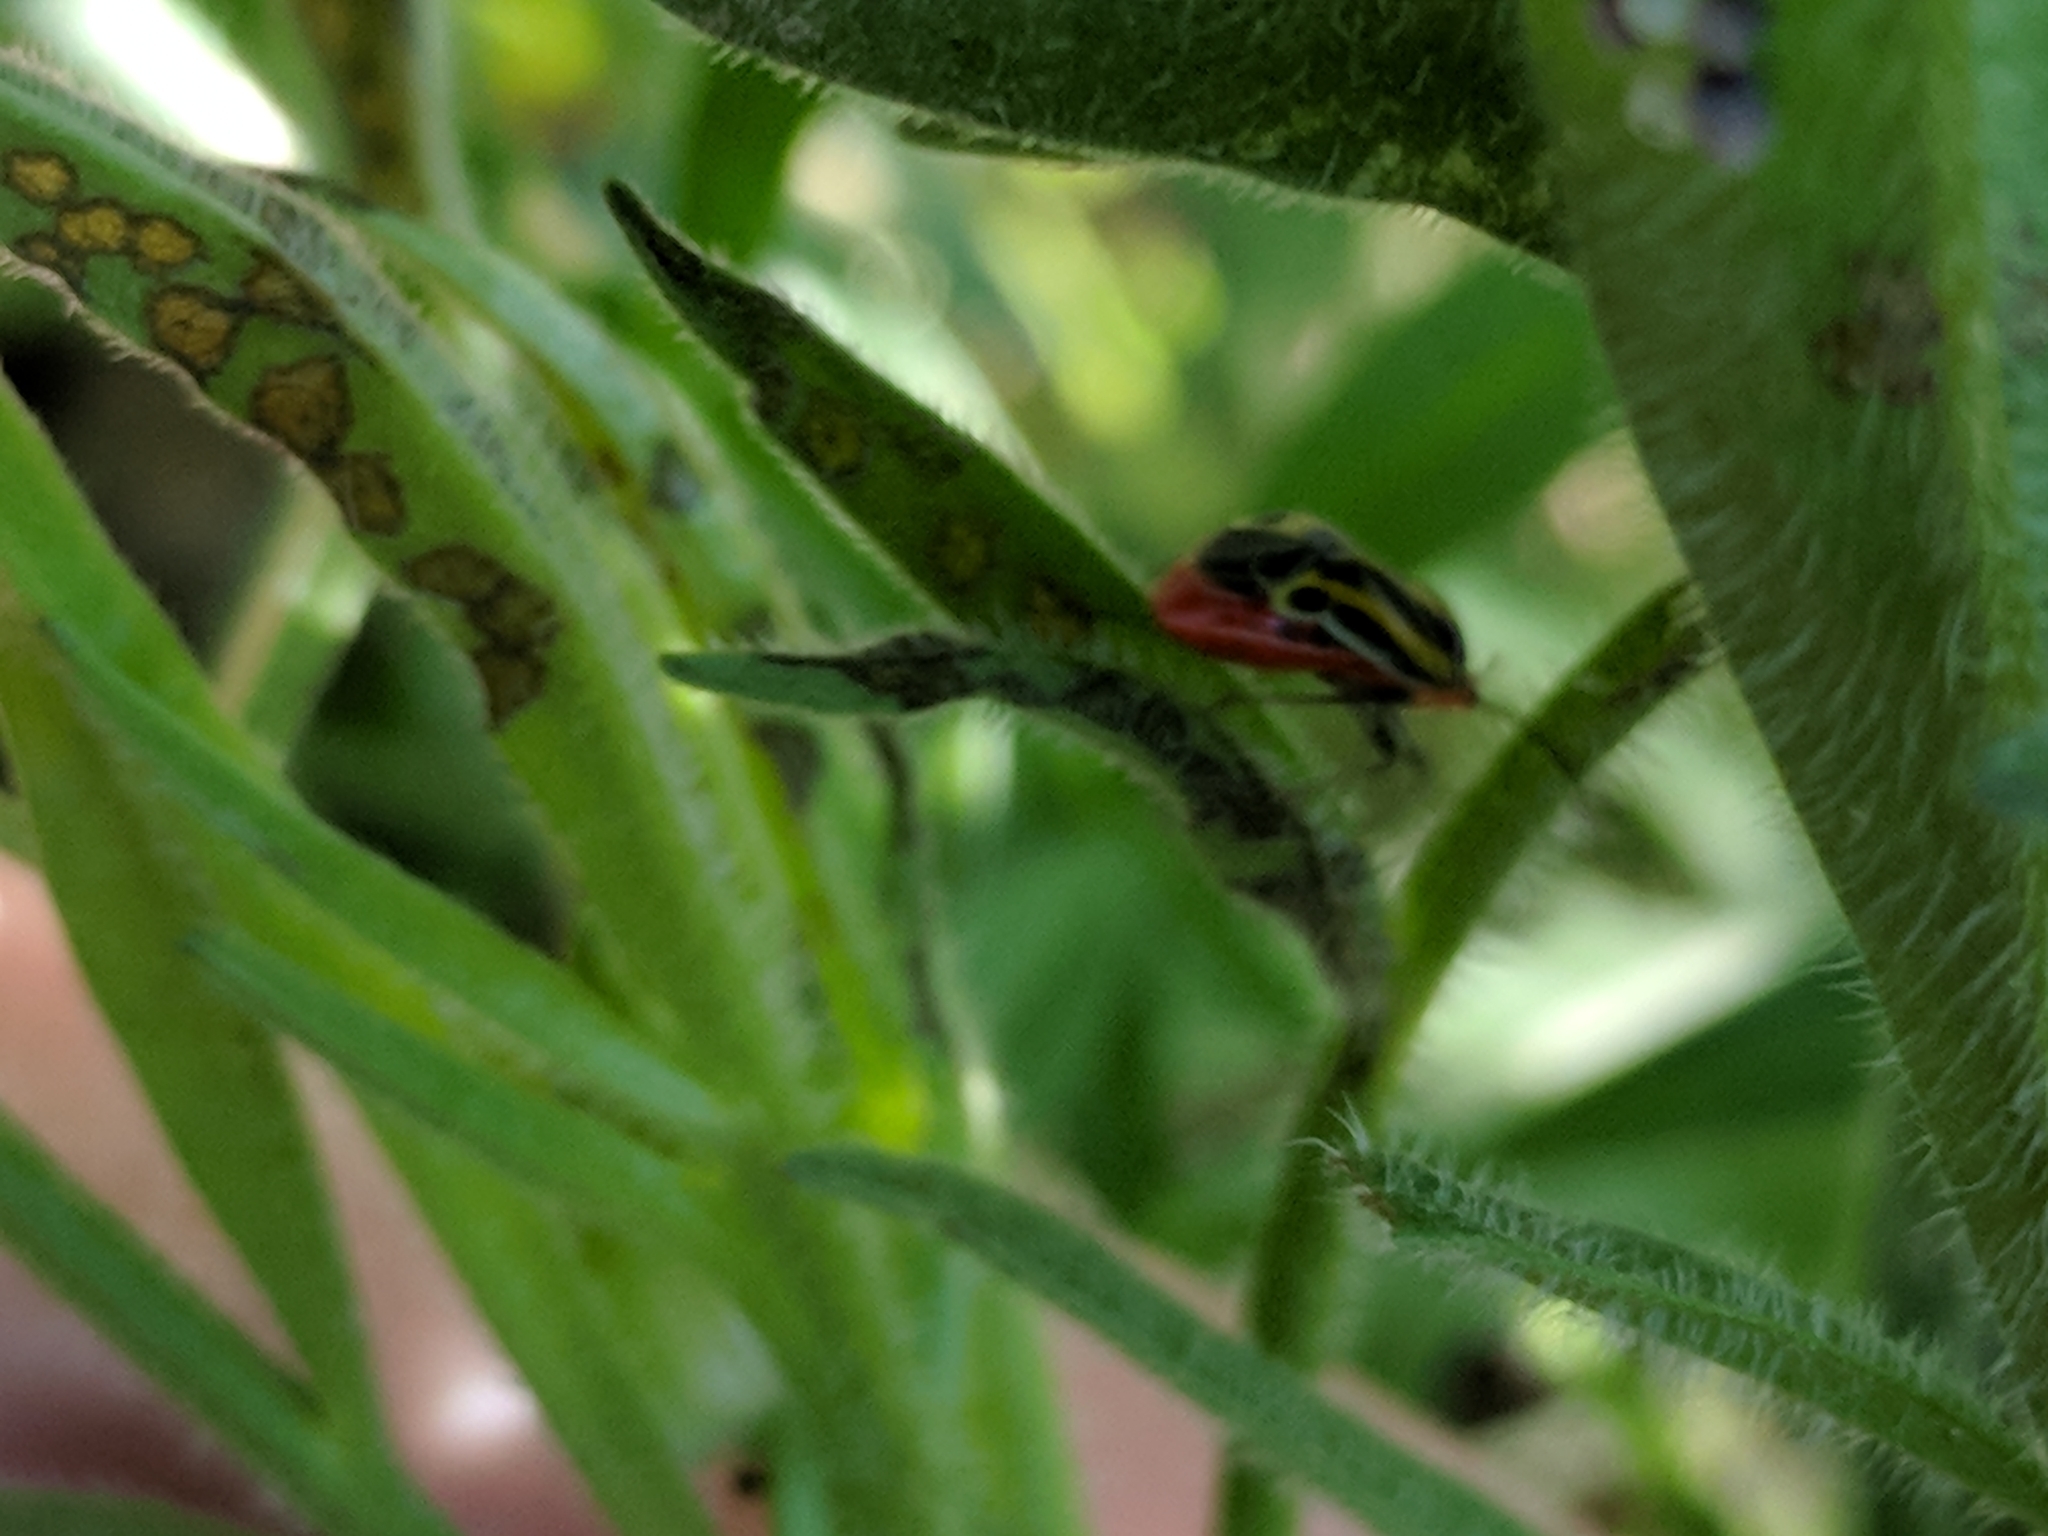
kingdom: Animalia
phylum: Arthropoda
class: Insecta
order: Hemiptera
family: Miridae
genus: Poecilocapsus
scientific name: Poecilocapsus lineatus
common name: Four-lined plant bug
